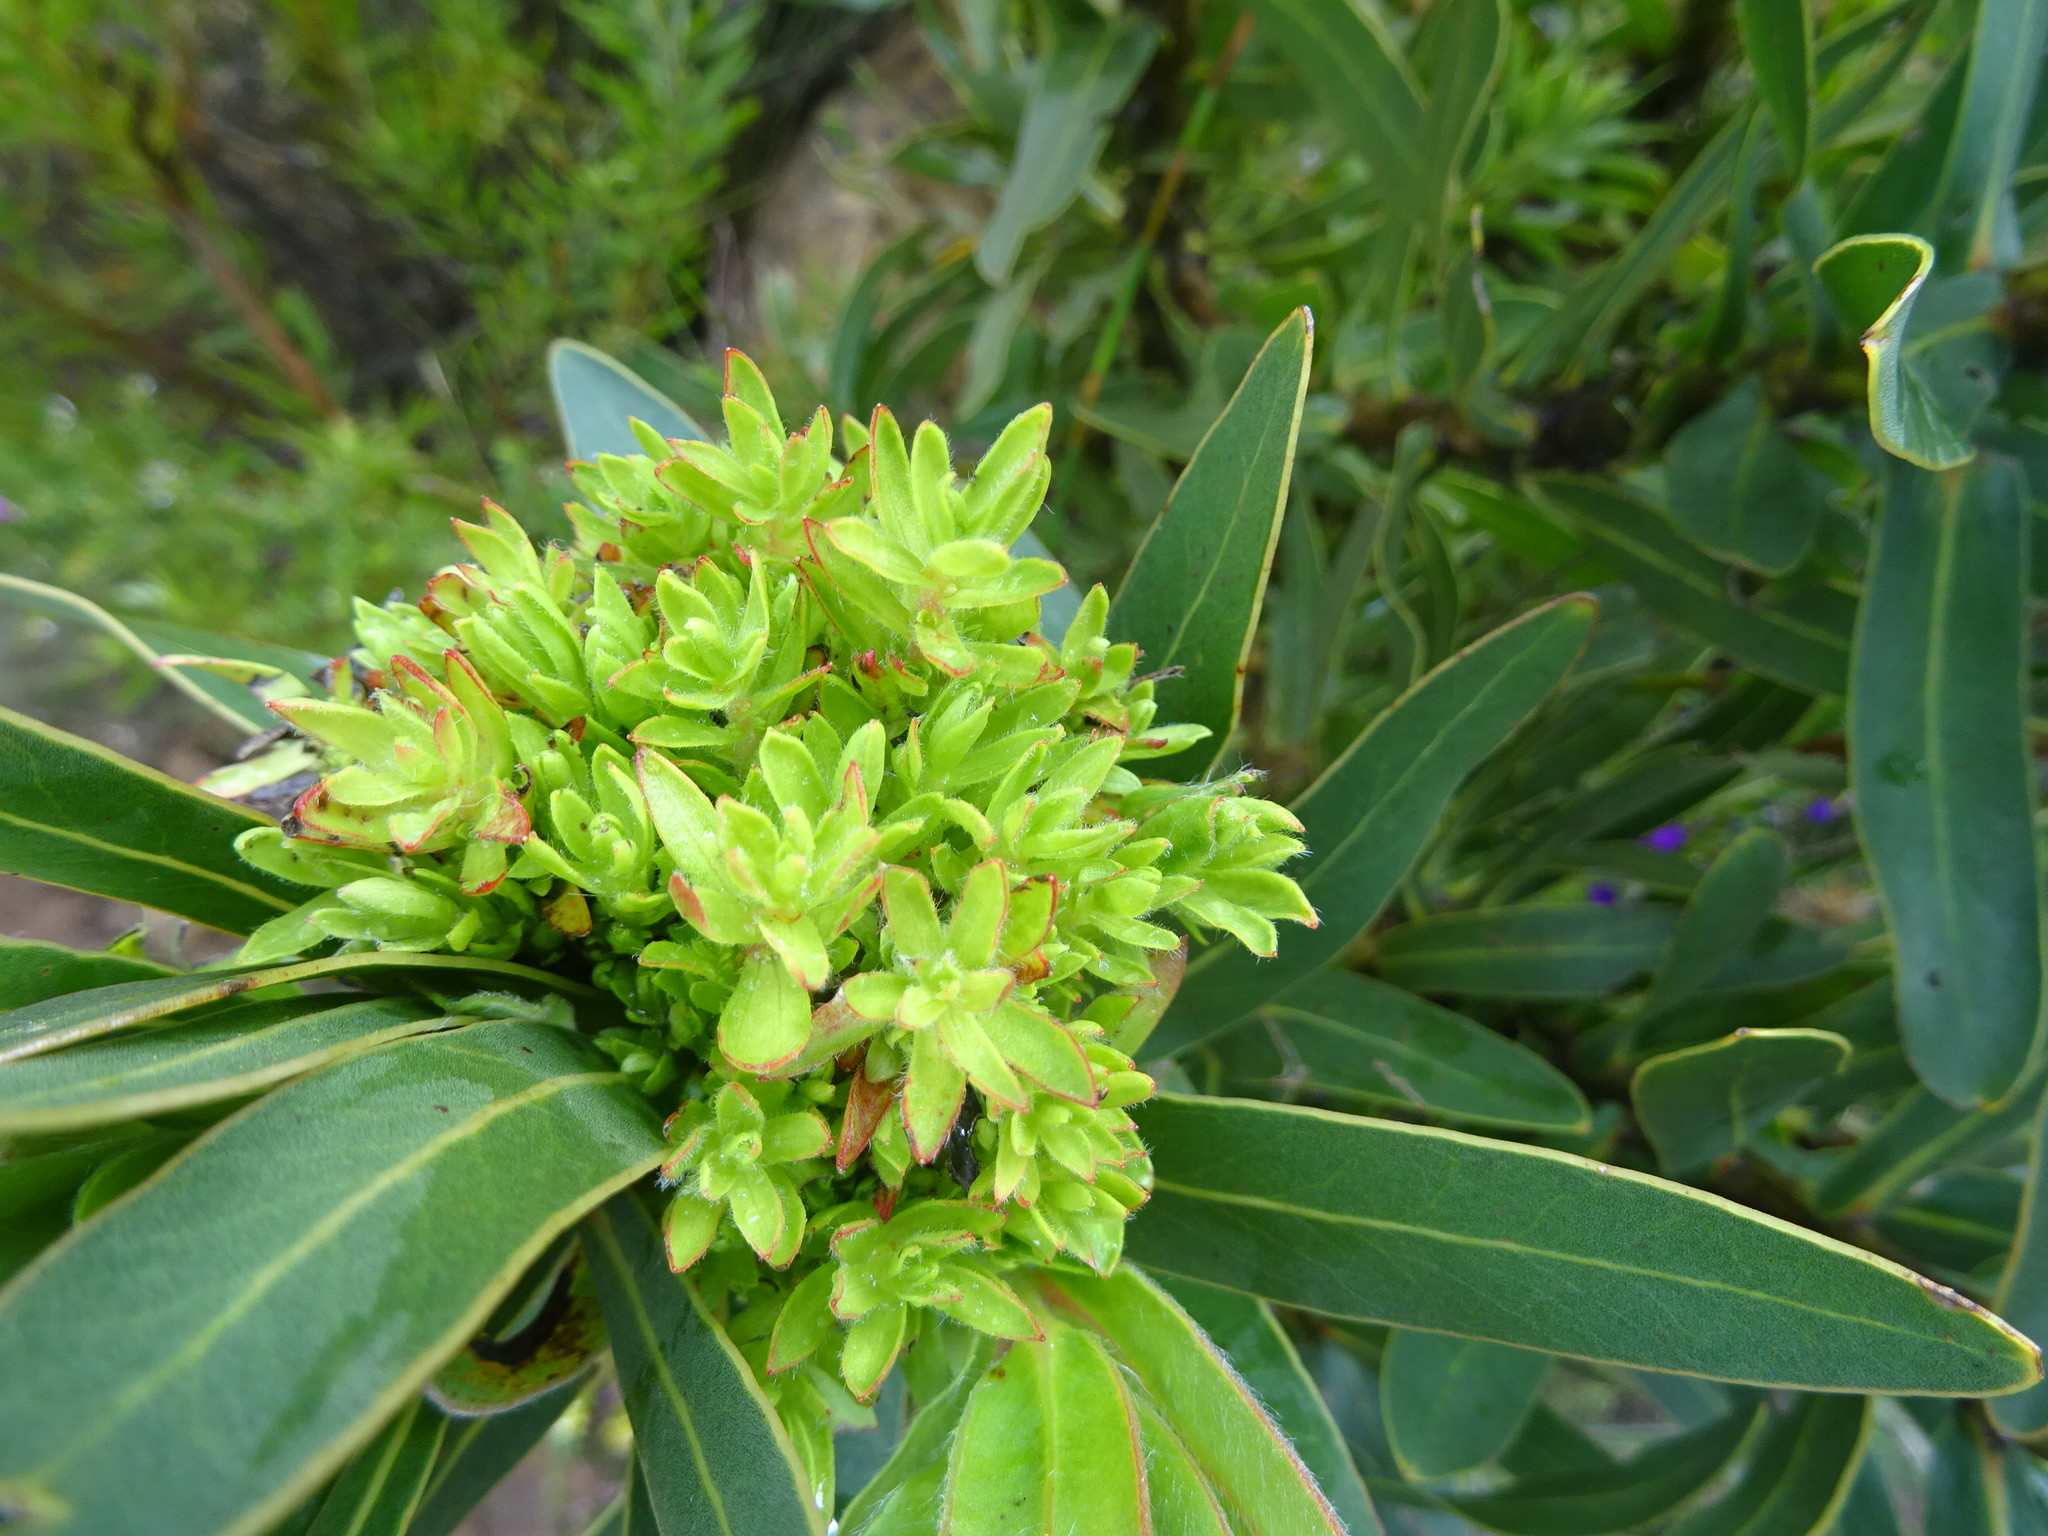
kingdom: Bacteria
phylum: Firmicutes
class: Bacilli
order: Acholeplasmatales
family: Acholeplasmataceae
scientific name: Acholeplasmataceae
